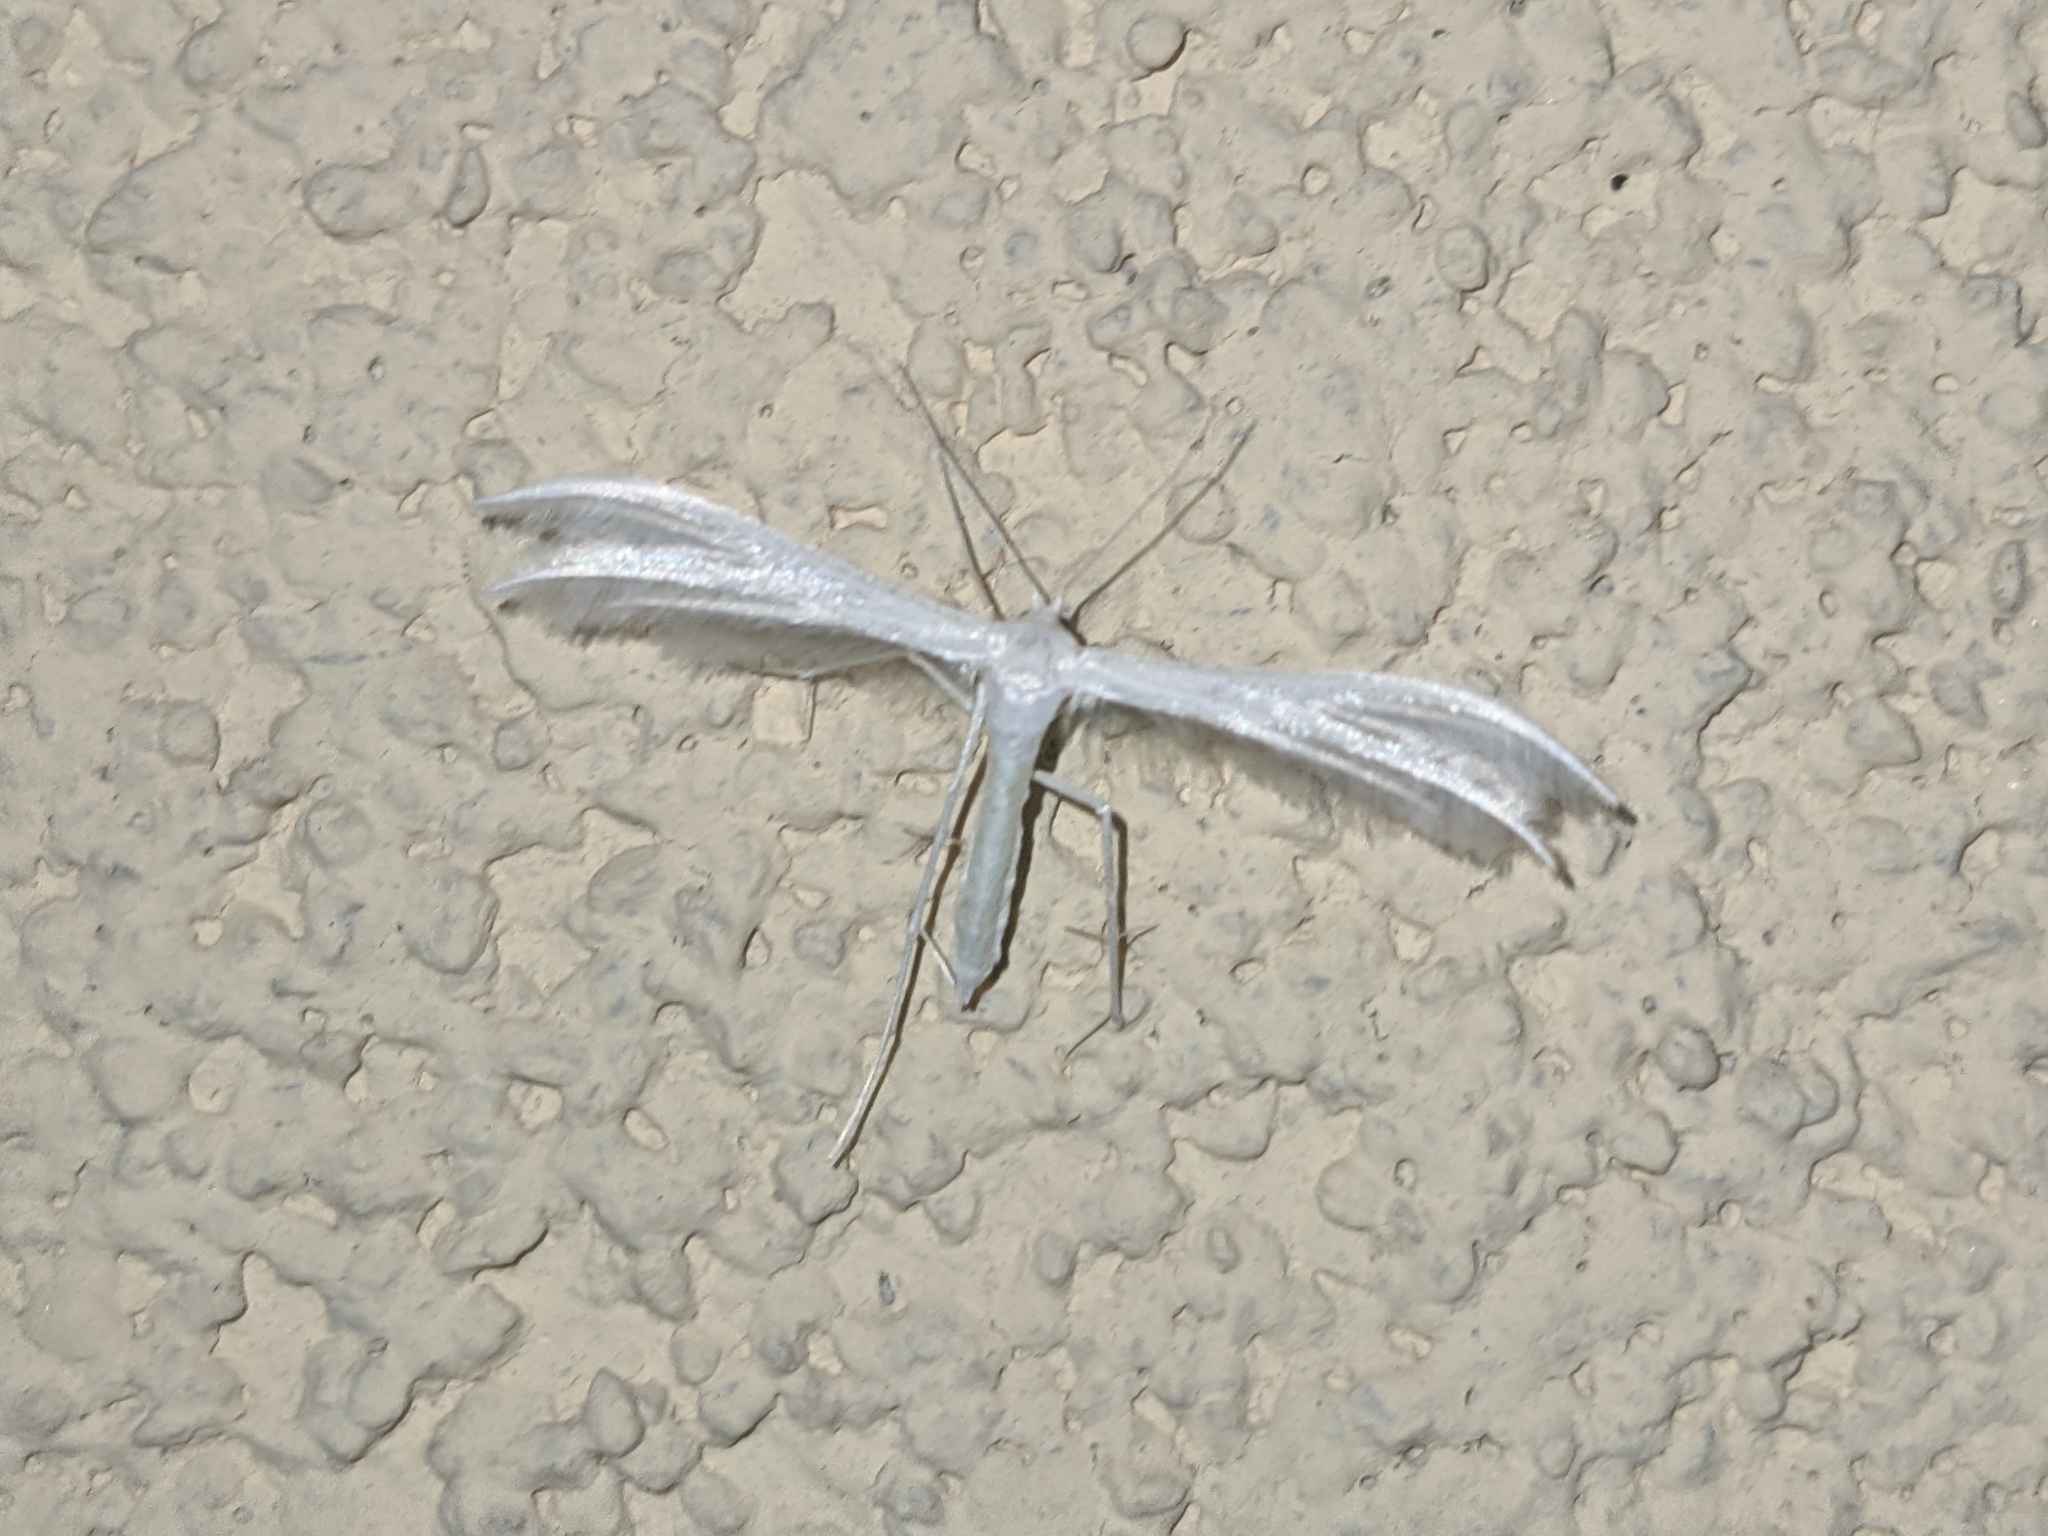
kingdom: Animalia
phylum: Arthropoda
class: Insecta
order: Lepidoptera
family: Pterophoridae
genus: Pterophorus
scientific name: Pterophorus pentadactyla
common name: White plume moth
